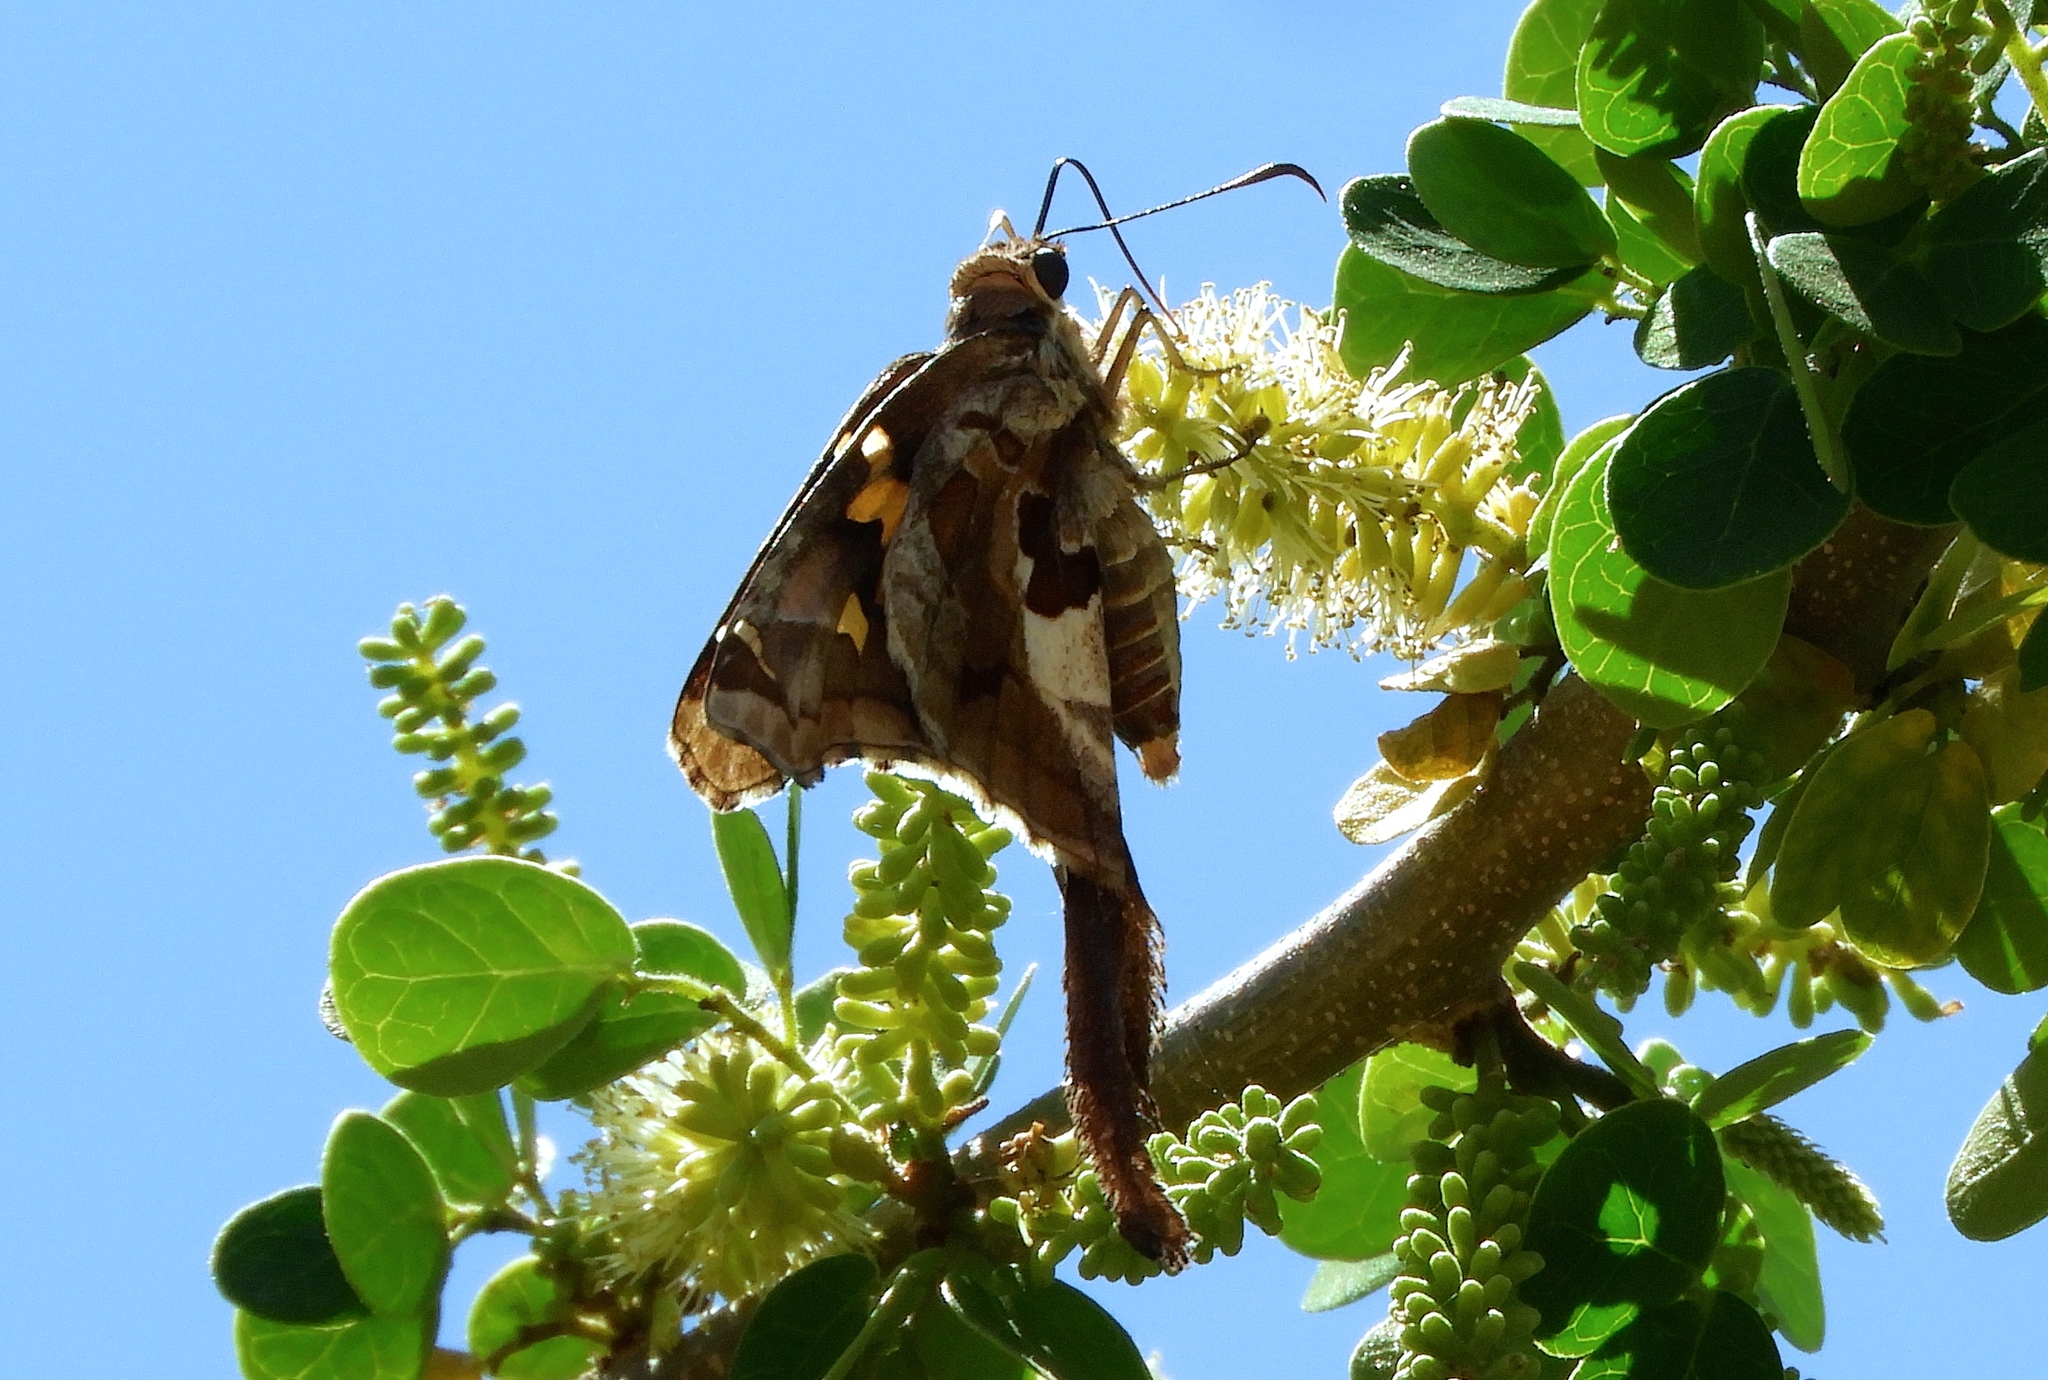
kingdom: Animalia
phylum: Arthropoda
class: Insecta
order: Lepidoptera
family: Hesperiidae
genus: Chioides
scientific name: Chioides zilpa
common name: Zilpa longtail
